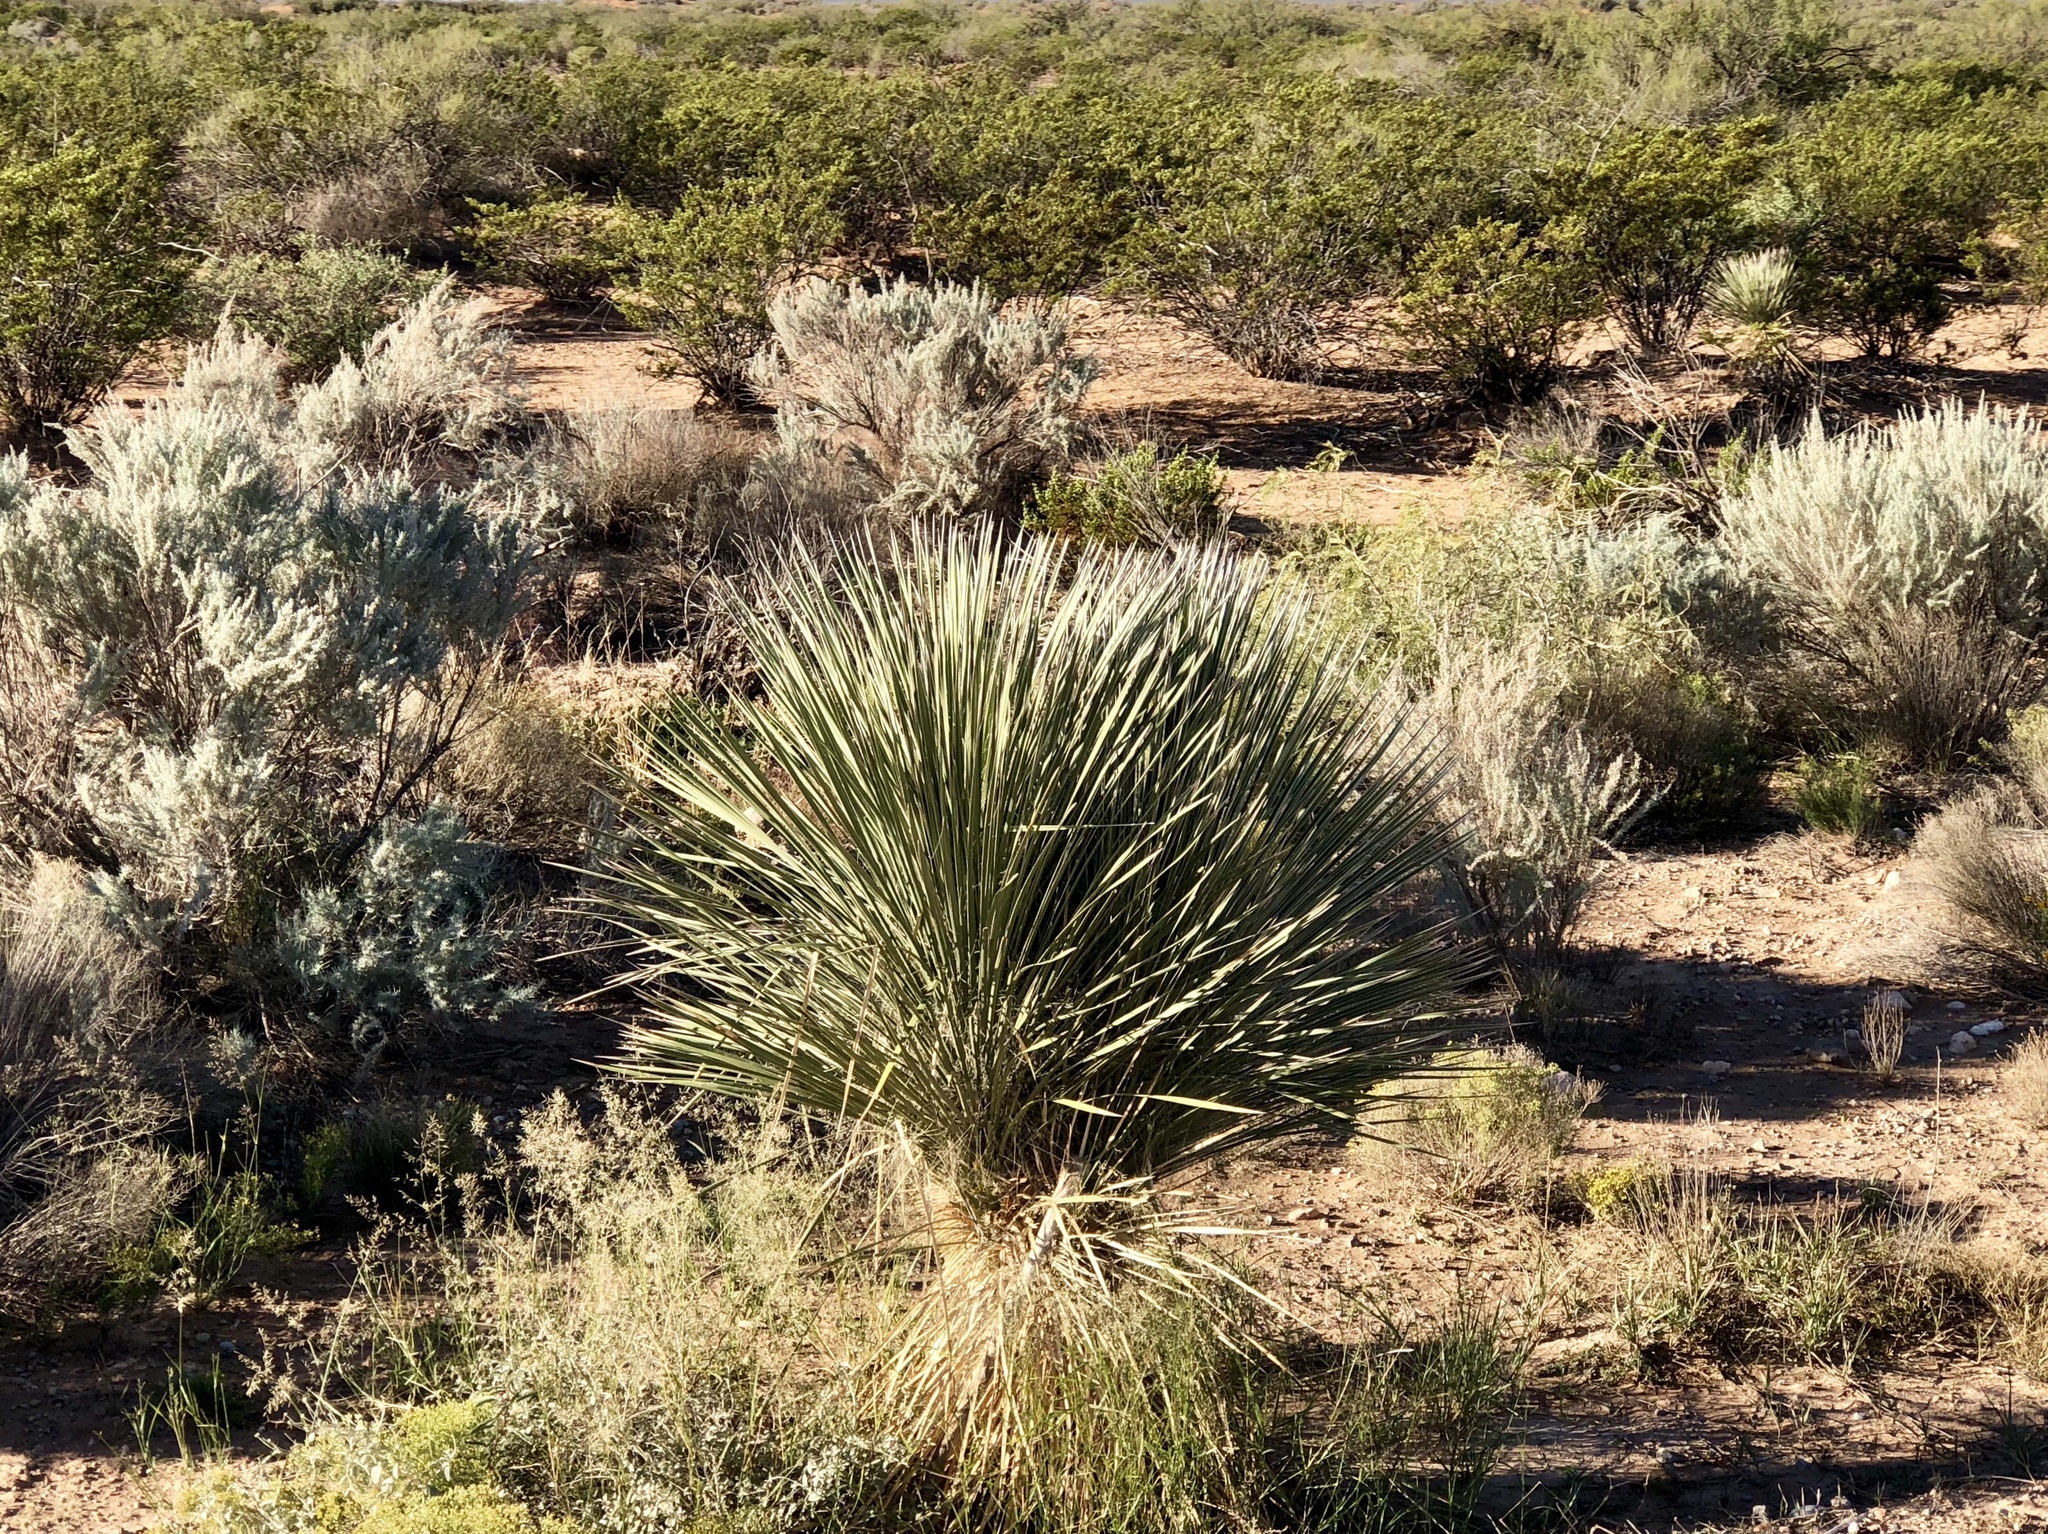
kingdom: Plantae
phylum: Tracheophyta
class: Liliopsida
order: Asparagales
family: Asparagaceae
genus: Yucca
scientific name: Yucca elata
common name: Palmella
